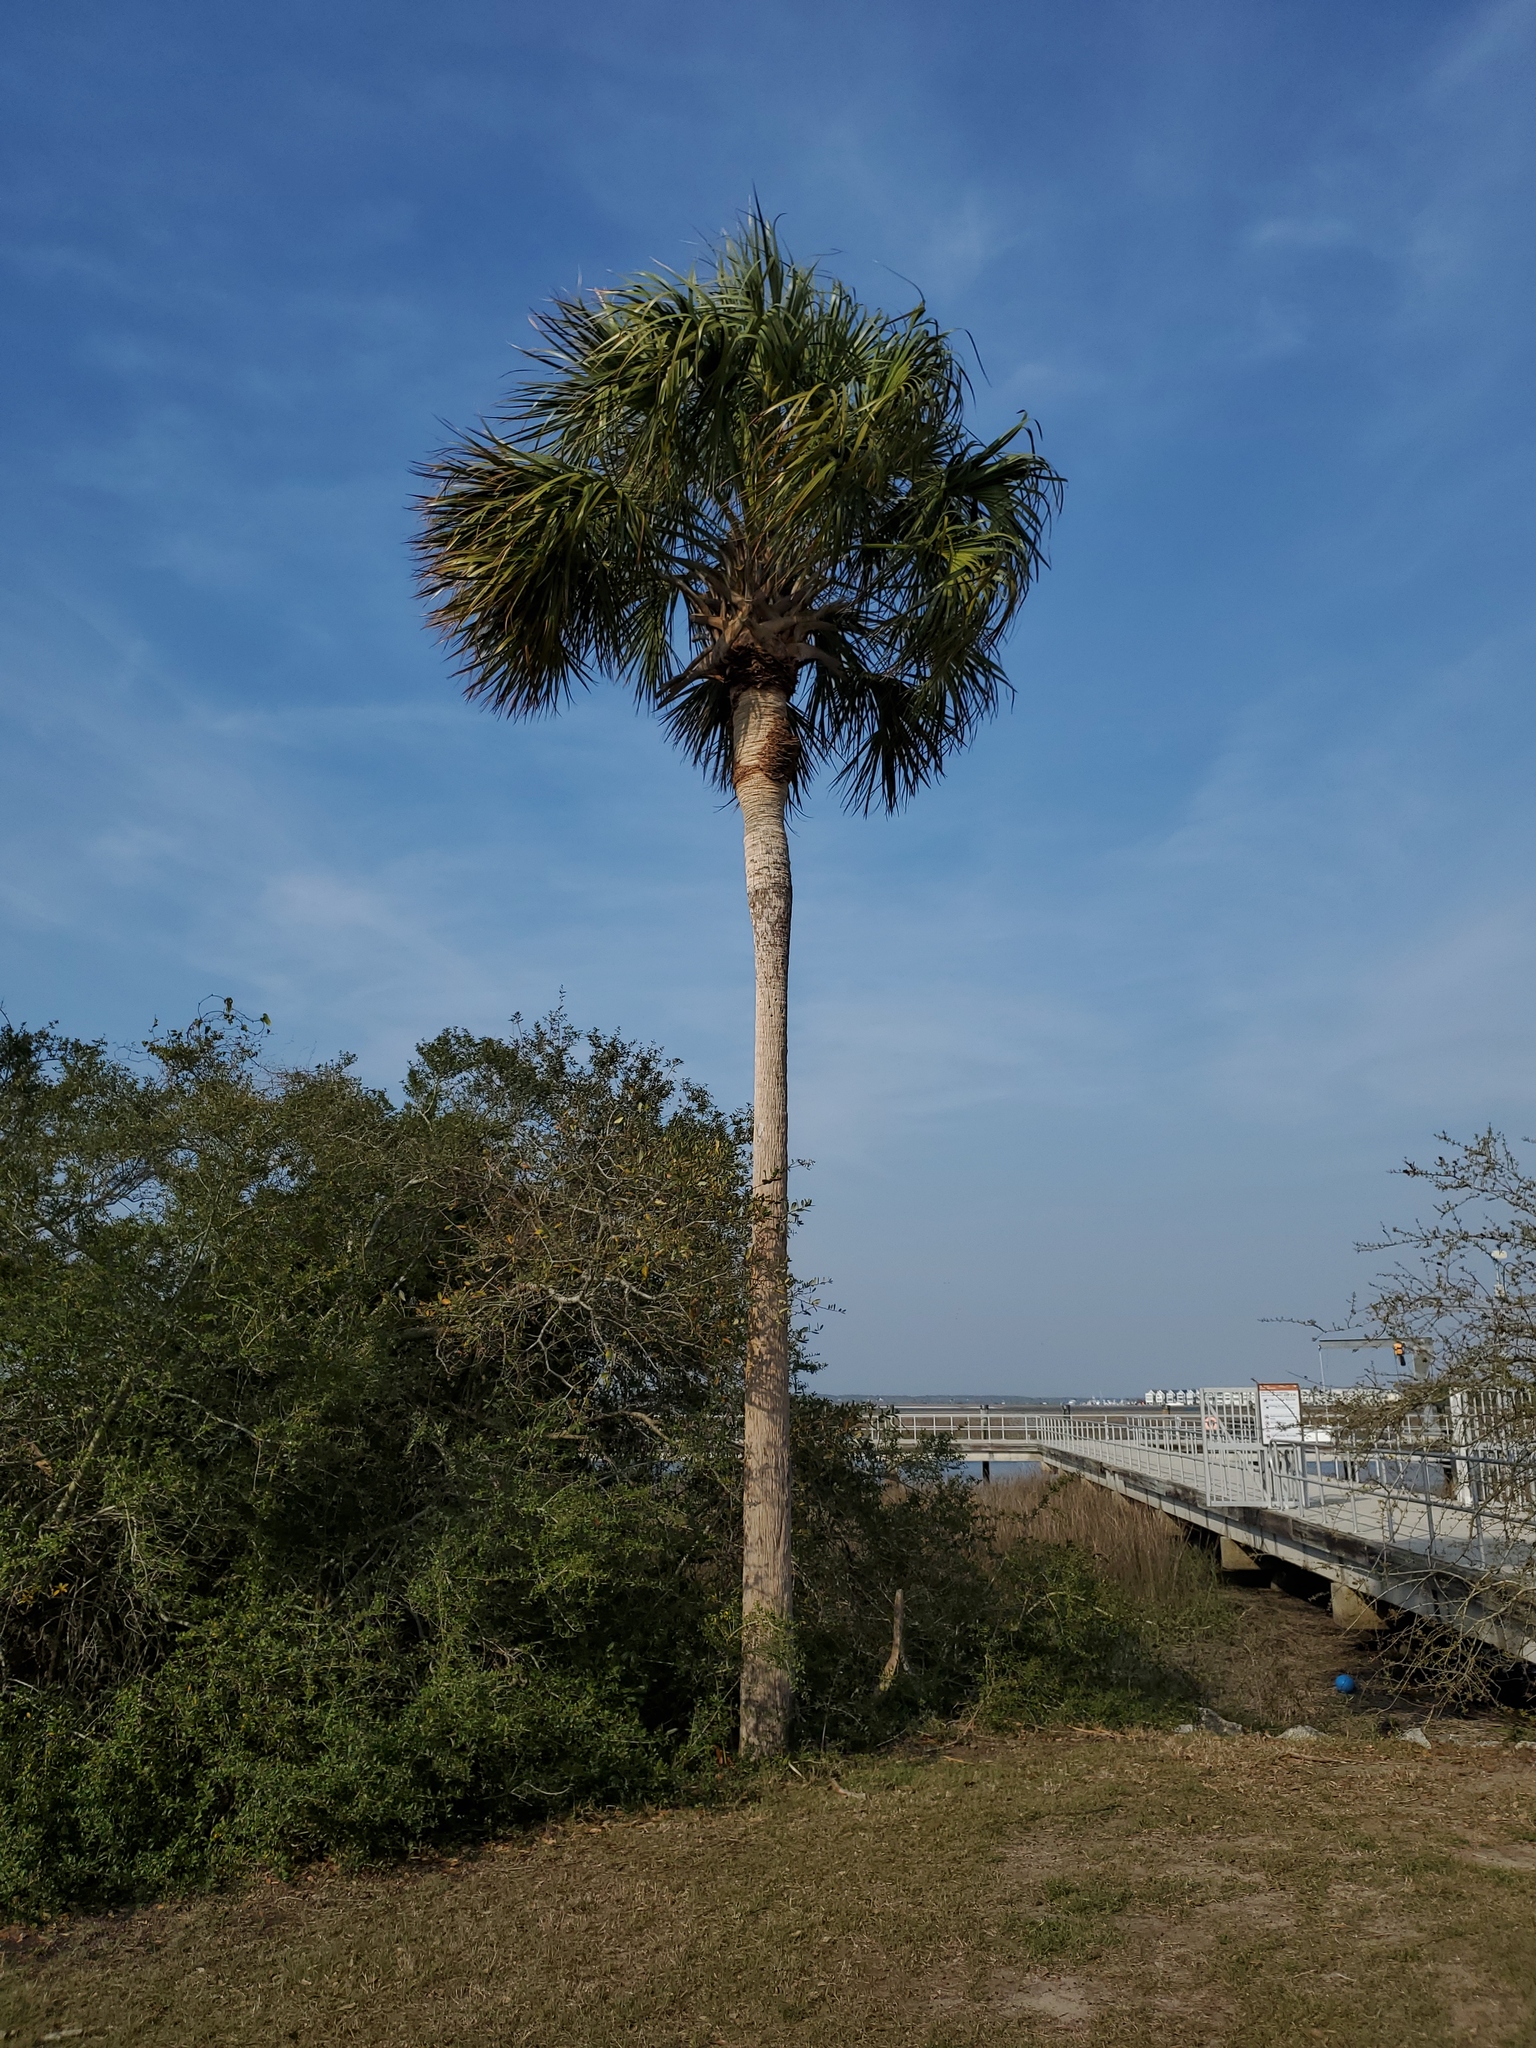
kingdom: Plantae
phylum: Tracheophyta
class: Liliopsida
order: Arecales
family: Arecaceae
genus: Sabal
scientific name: Sabal palmetto
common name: Blue palmetto
